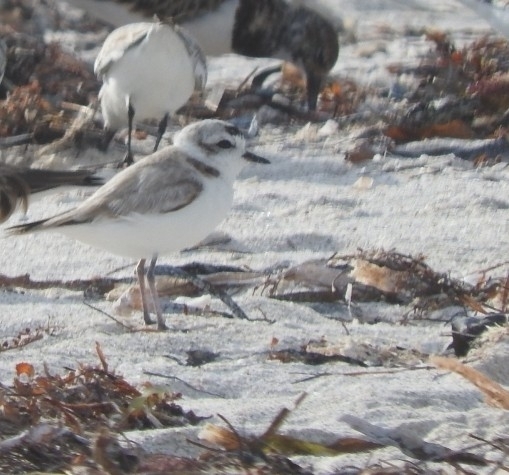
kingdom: Animalia
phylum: Chordata
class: Aves
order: Charadriiformes
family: Charadriidae
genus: Anarhynchus
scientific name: Anarhynchus
